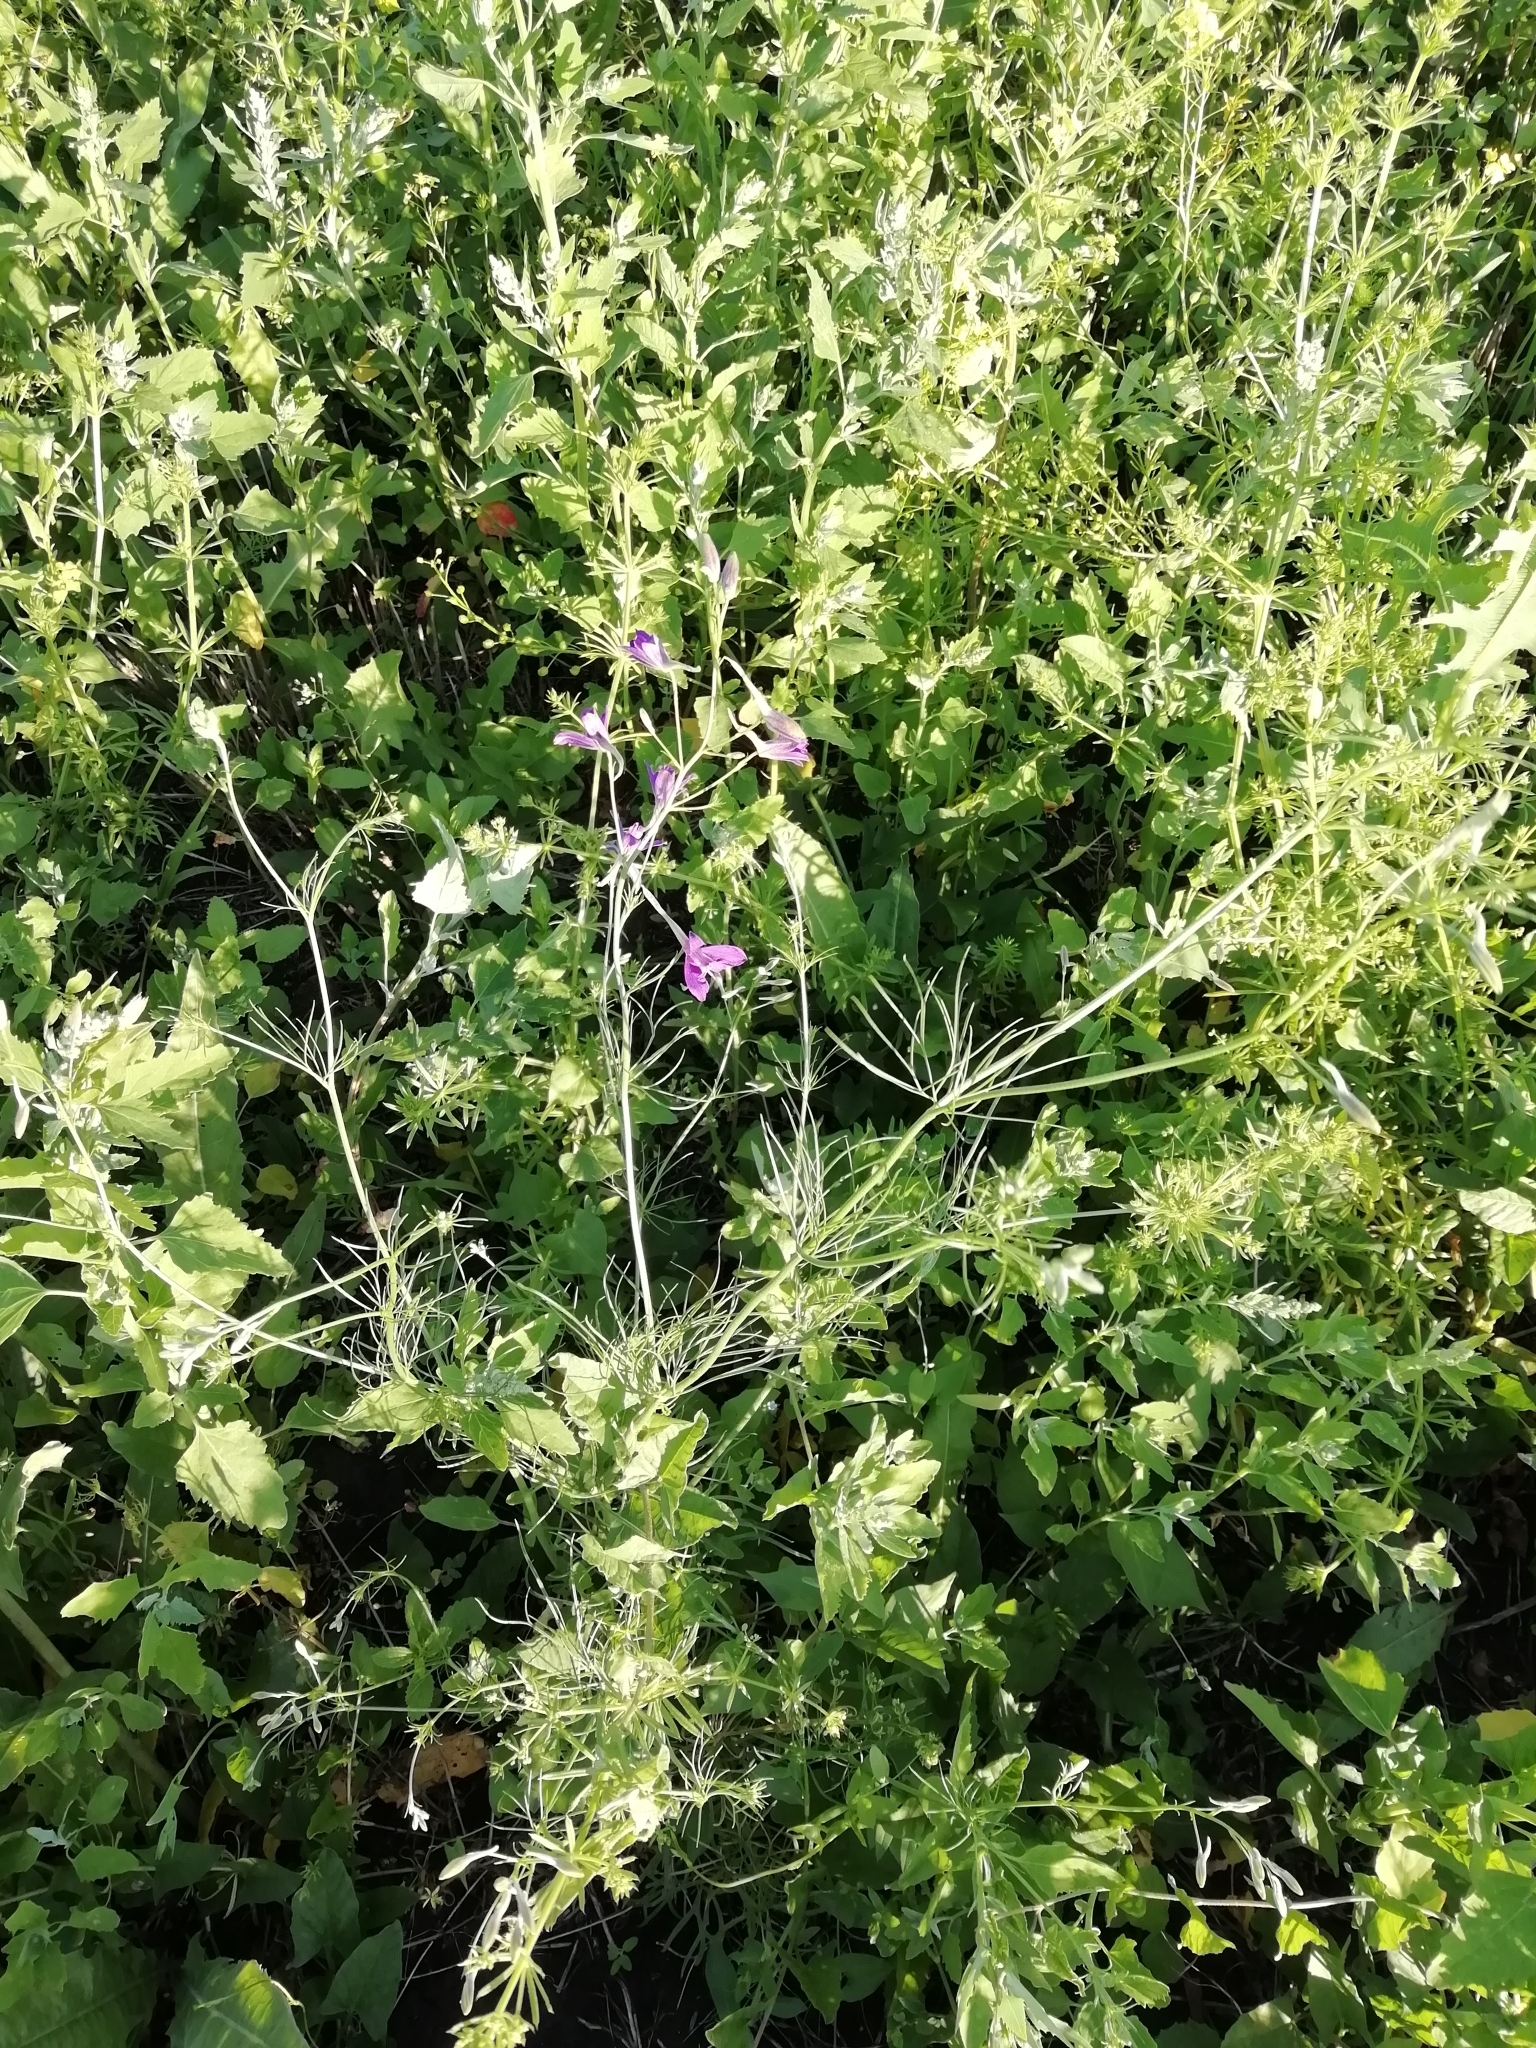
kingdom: Plantae
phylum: Tracheophyta
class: Magnoliopsida
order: Ranunculales
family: Ranunculaceae
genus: Delphinium
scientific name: Delphinium consolida
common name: Branching larkspur
